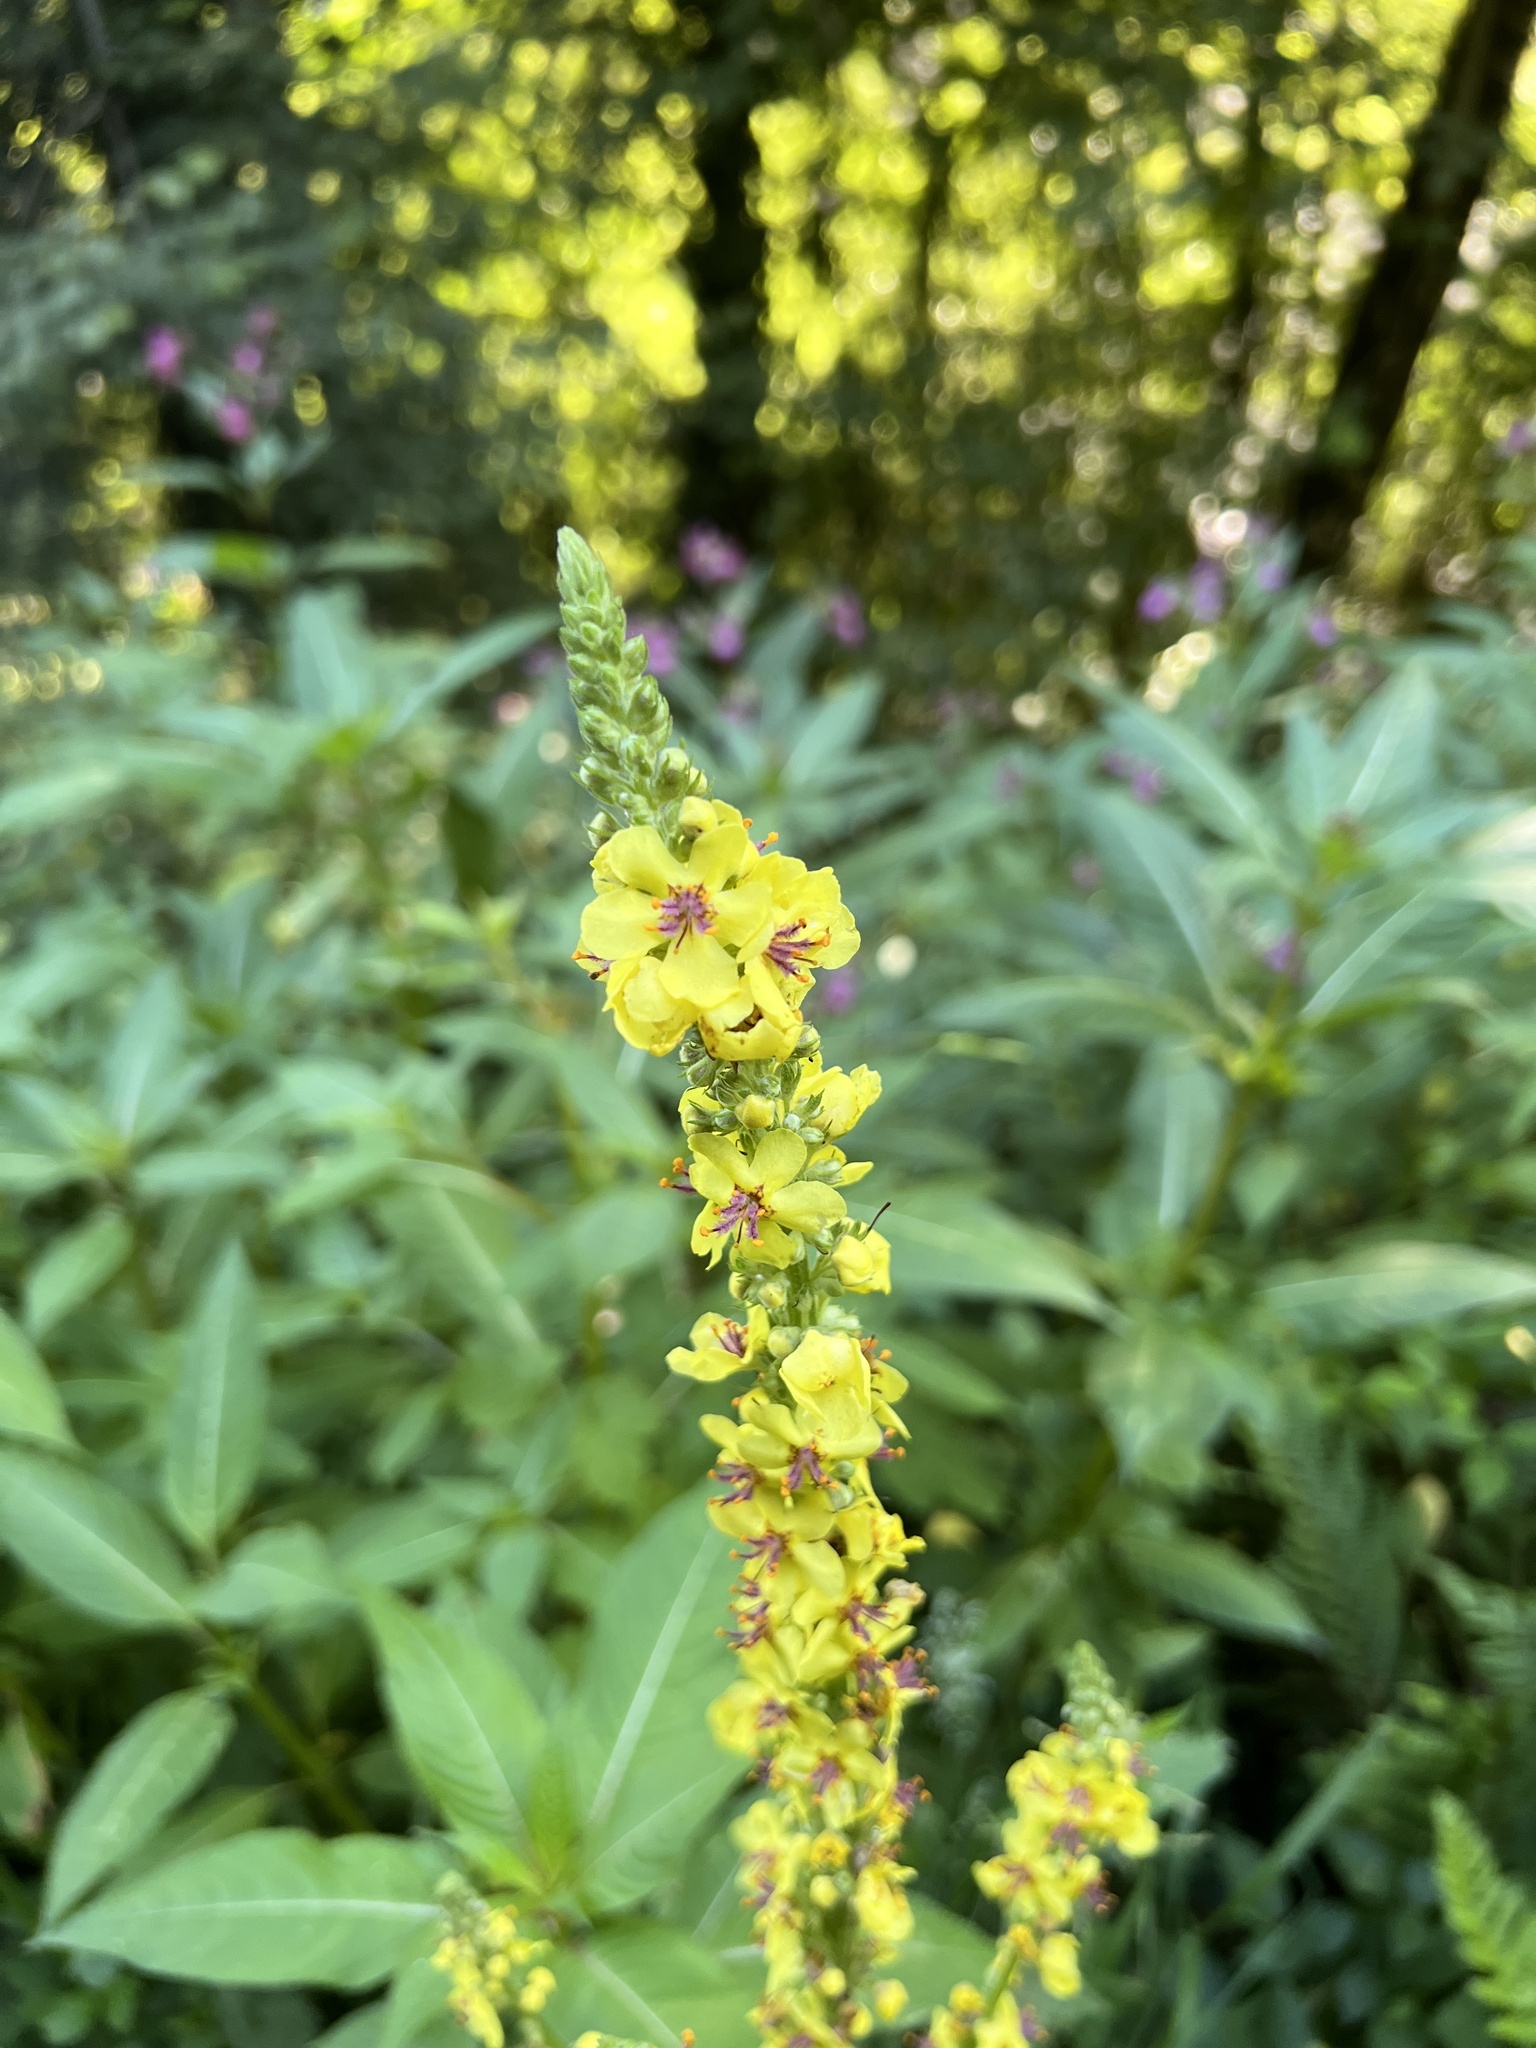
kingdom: Plantae
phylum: Tracheophyta
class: Magnoliopsida
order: Lamiales
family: Scrophulariaceae
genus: Verbascum
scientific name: Verbascum nigrum
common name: Dark mullein
